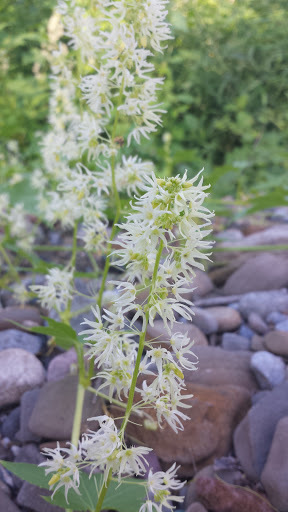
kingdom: Plantae
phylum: Tracheophyta
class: Magnoliopsida
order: Cucurbitales
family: Cucurbitaceae
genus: Echinocystis
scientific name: Echinocystis lobata
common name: Wild cucumber
